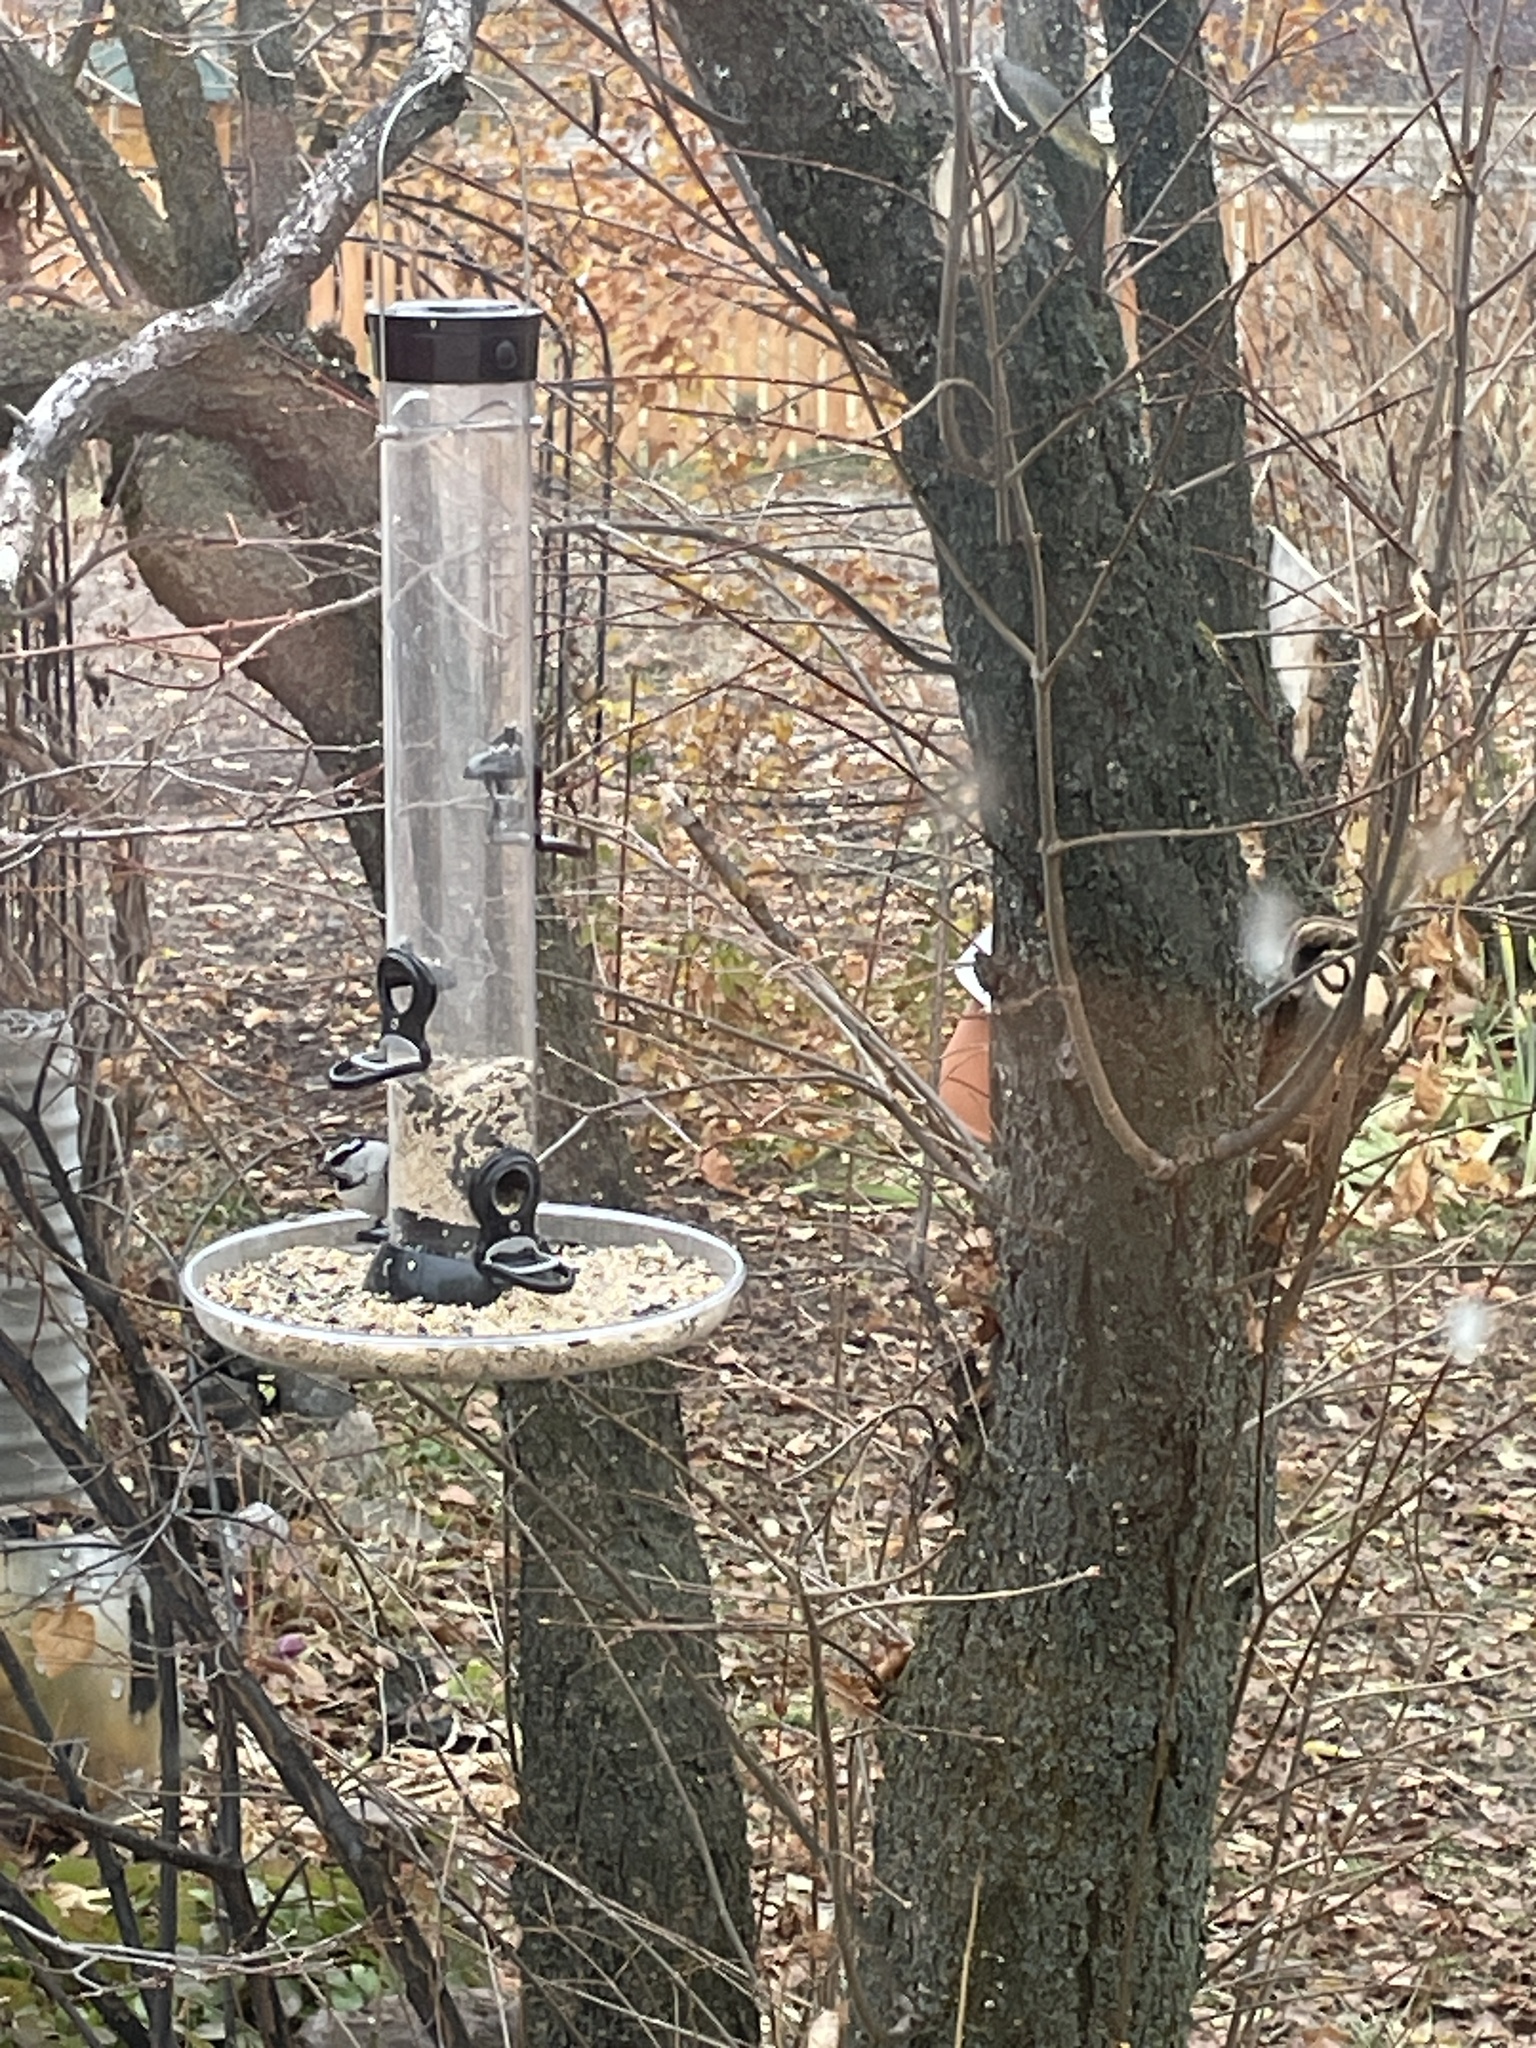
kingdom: Animalia
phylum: Chordata
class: Aves
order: Passeriformes
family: Paridae
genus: Poecile
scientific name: Poecile gambeli
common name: Mountain chickadee
